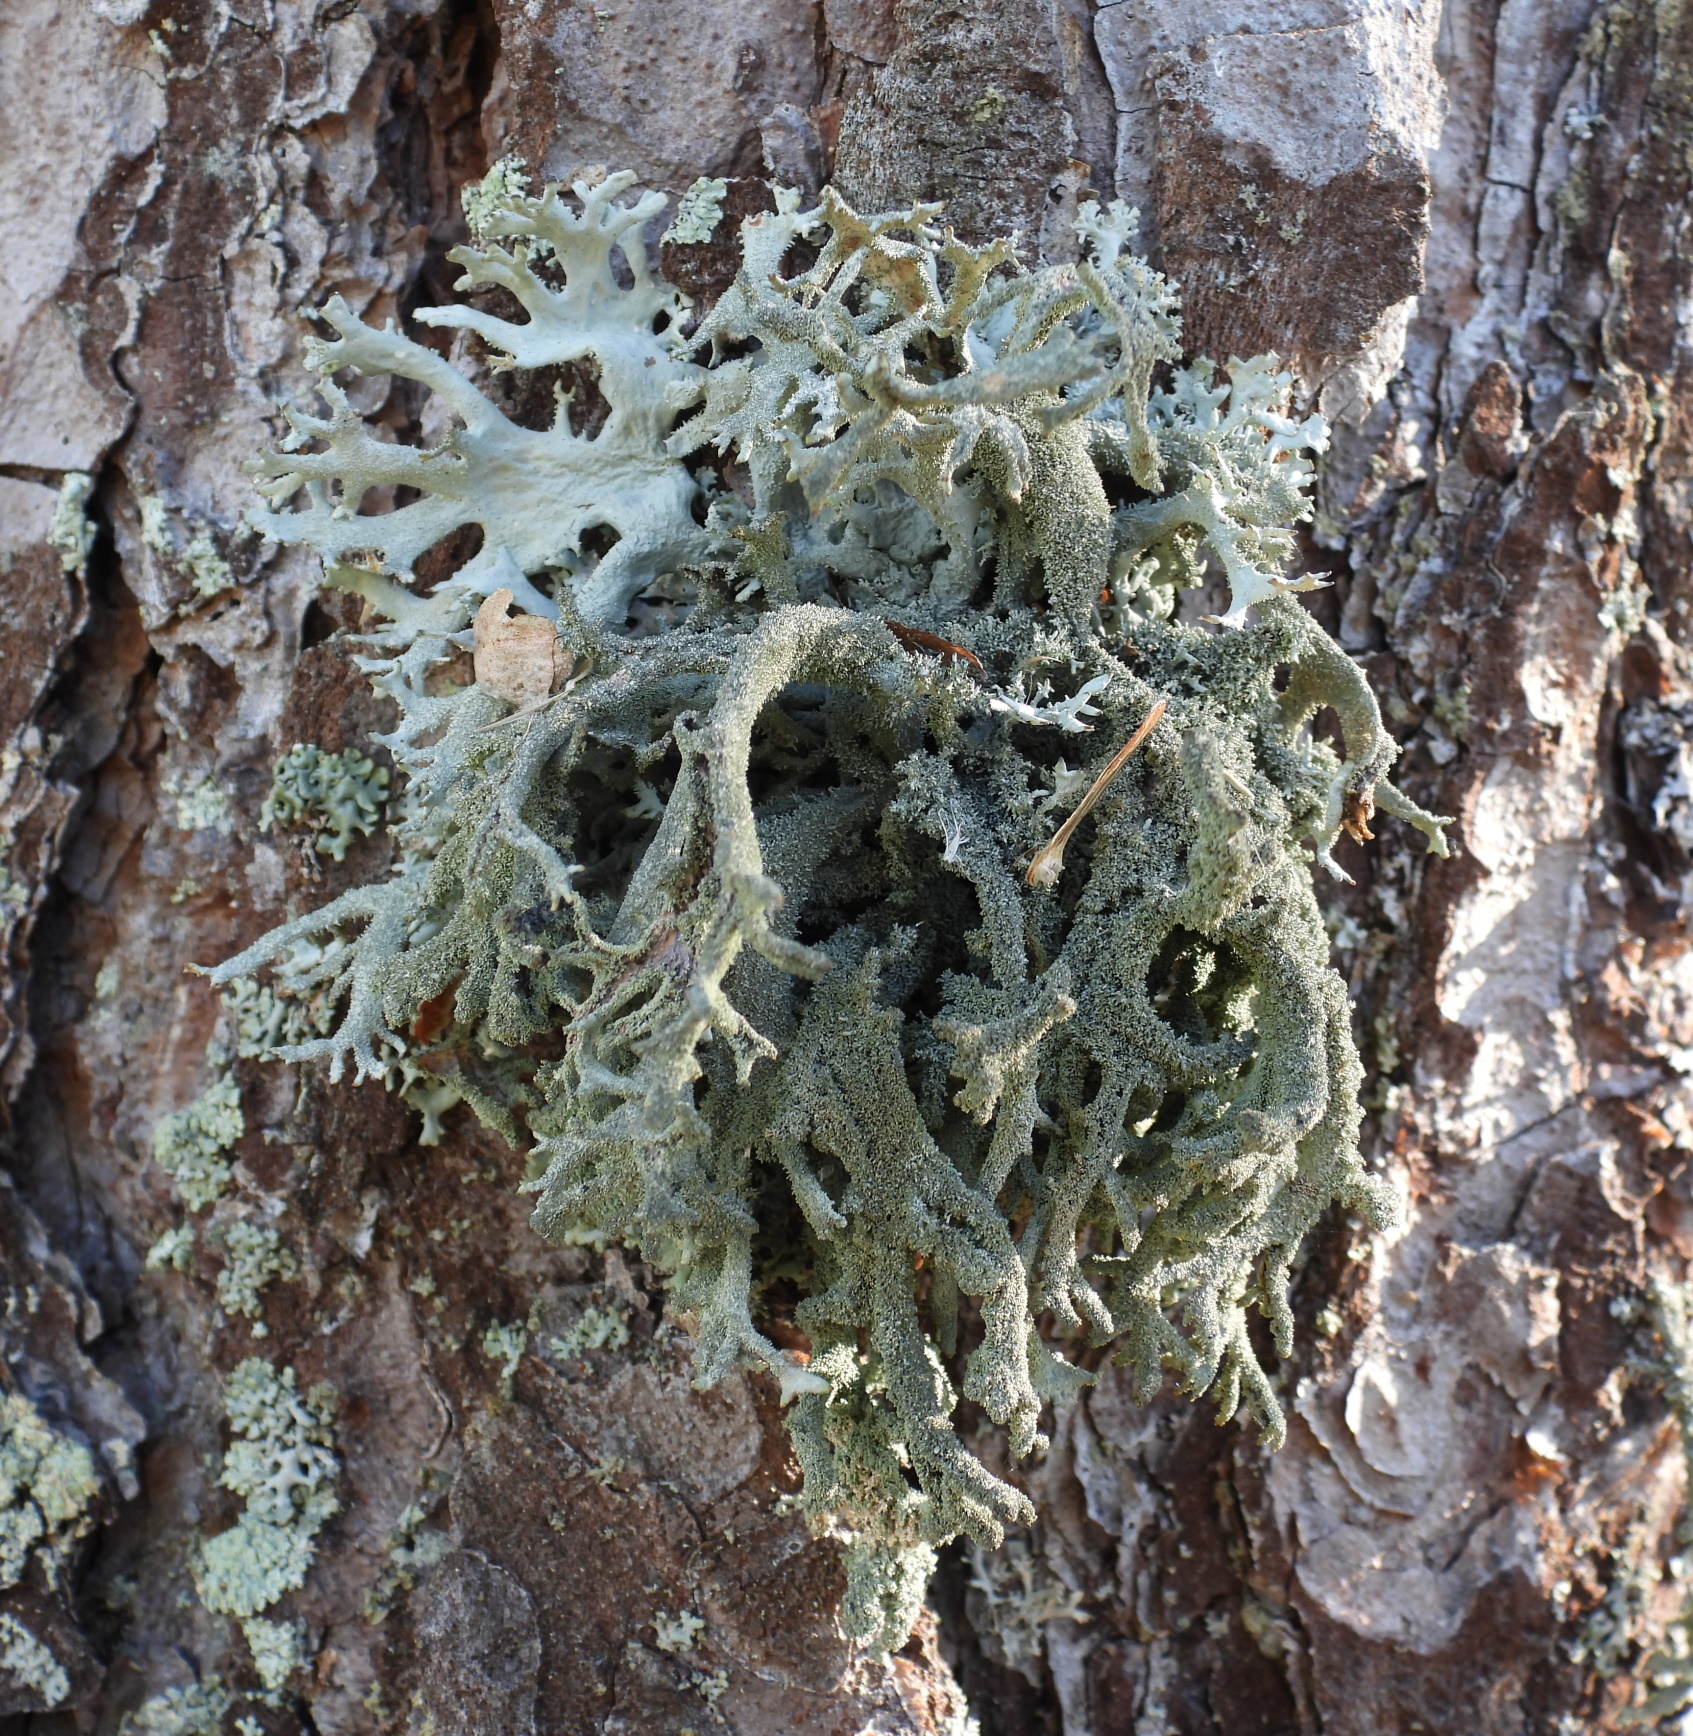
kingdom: Fungi
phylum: Ascomycota
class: Lecanoromycetes
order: Lecanorales
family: Parmeliaceae
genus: Pseudevernia
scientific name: Pseudevernia furfuracea
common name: Tree moss
